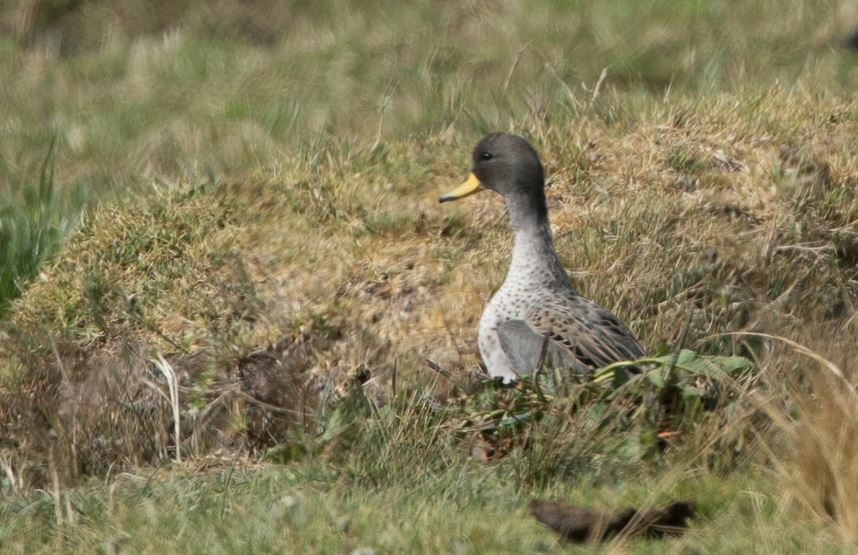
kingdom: Animalia
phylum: Chordata
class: Aves
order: Anseriformes
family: Anatidae
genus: Anas
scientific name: Anas flavirostris
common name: Yellow-billed teal
